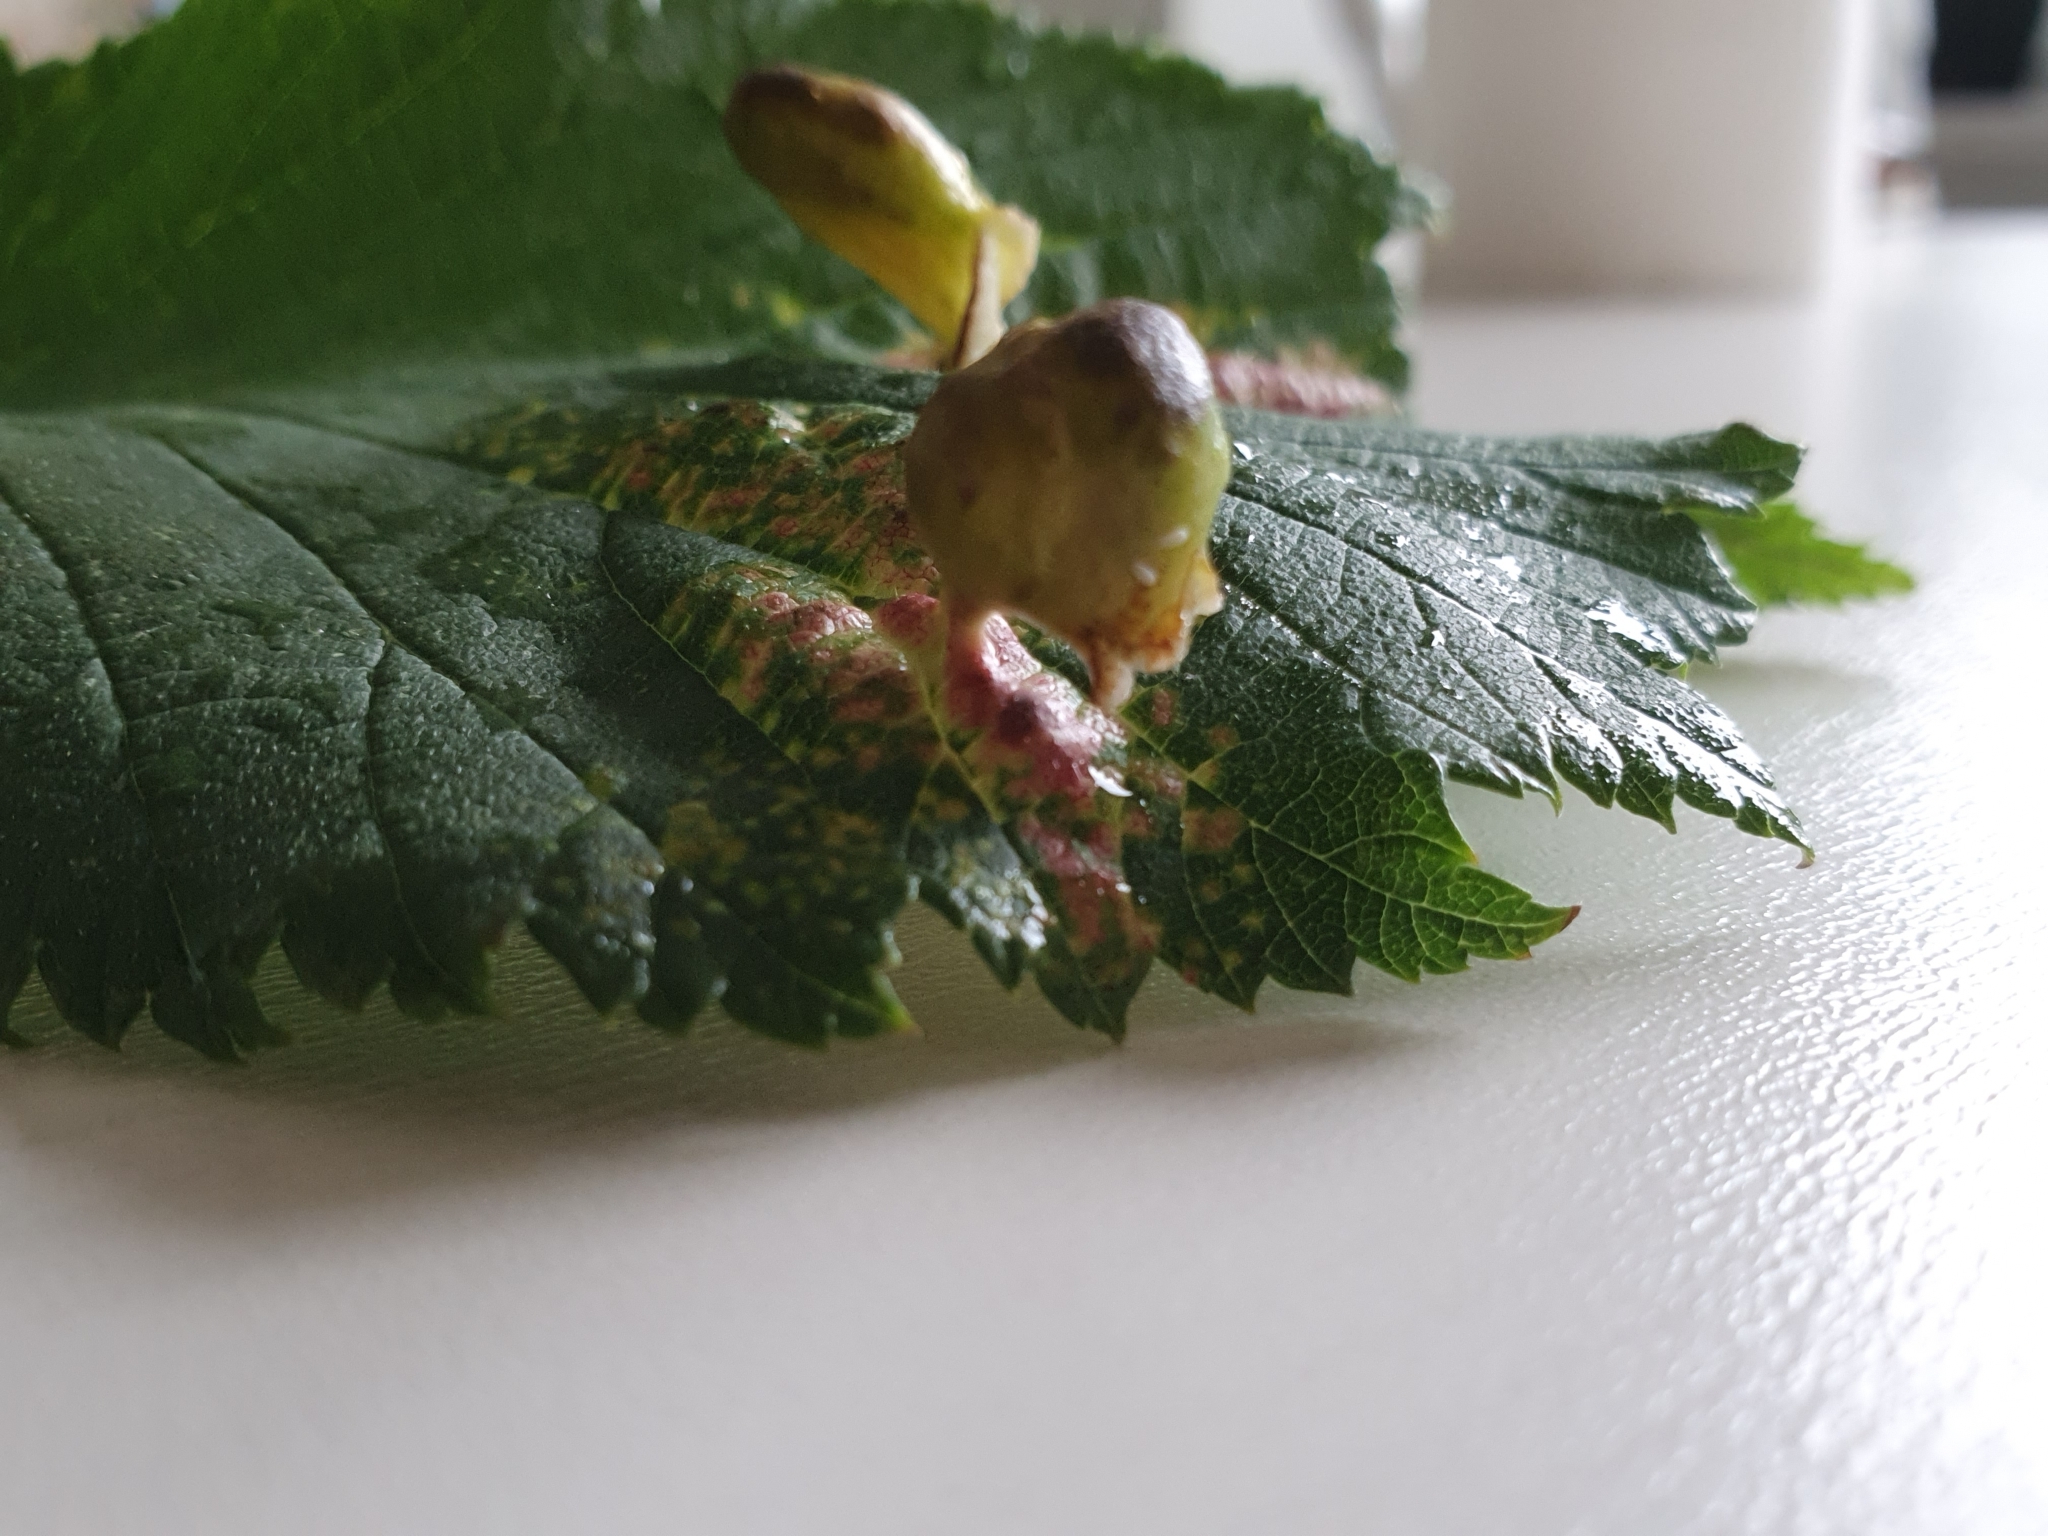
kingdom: Animalia
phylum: Arthropoda
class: Insecta
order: Hemiptera
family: Aphididae
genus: Tetraneura
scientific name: Tetraneura ulmi
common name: Aphid
